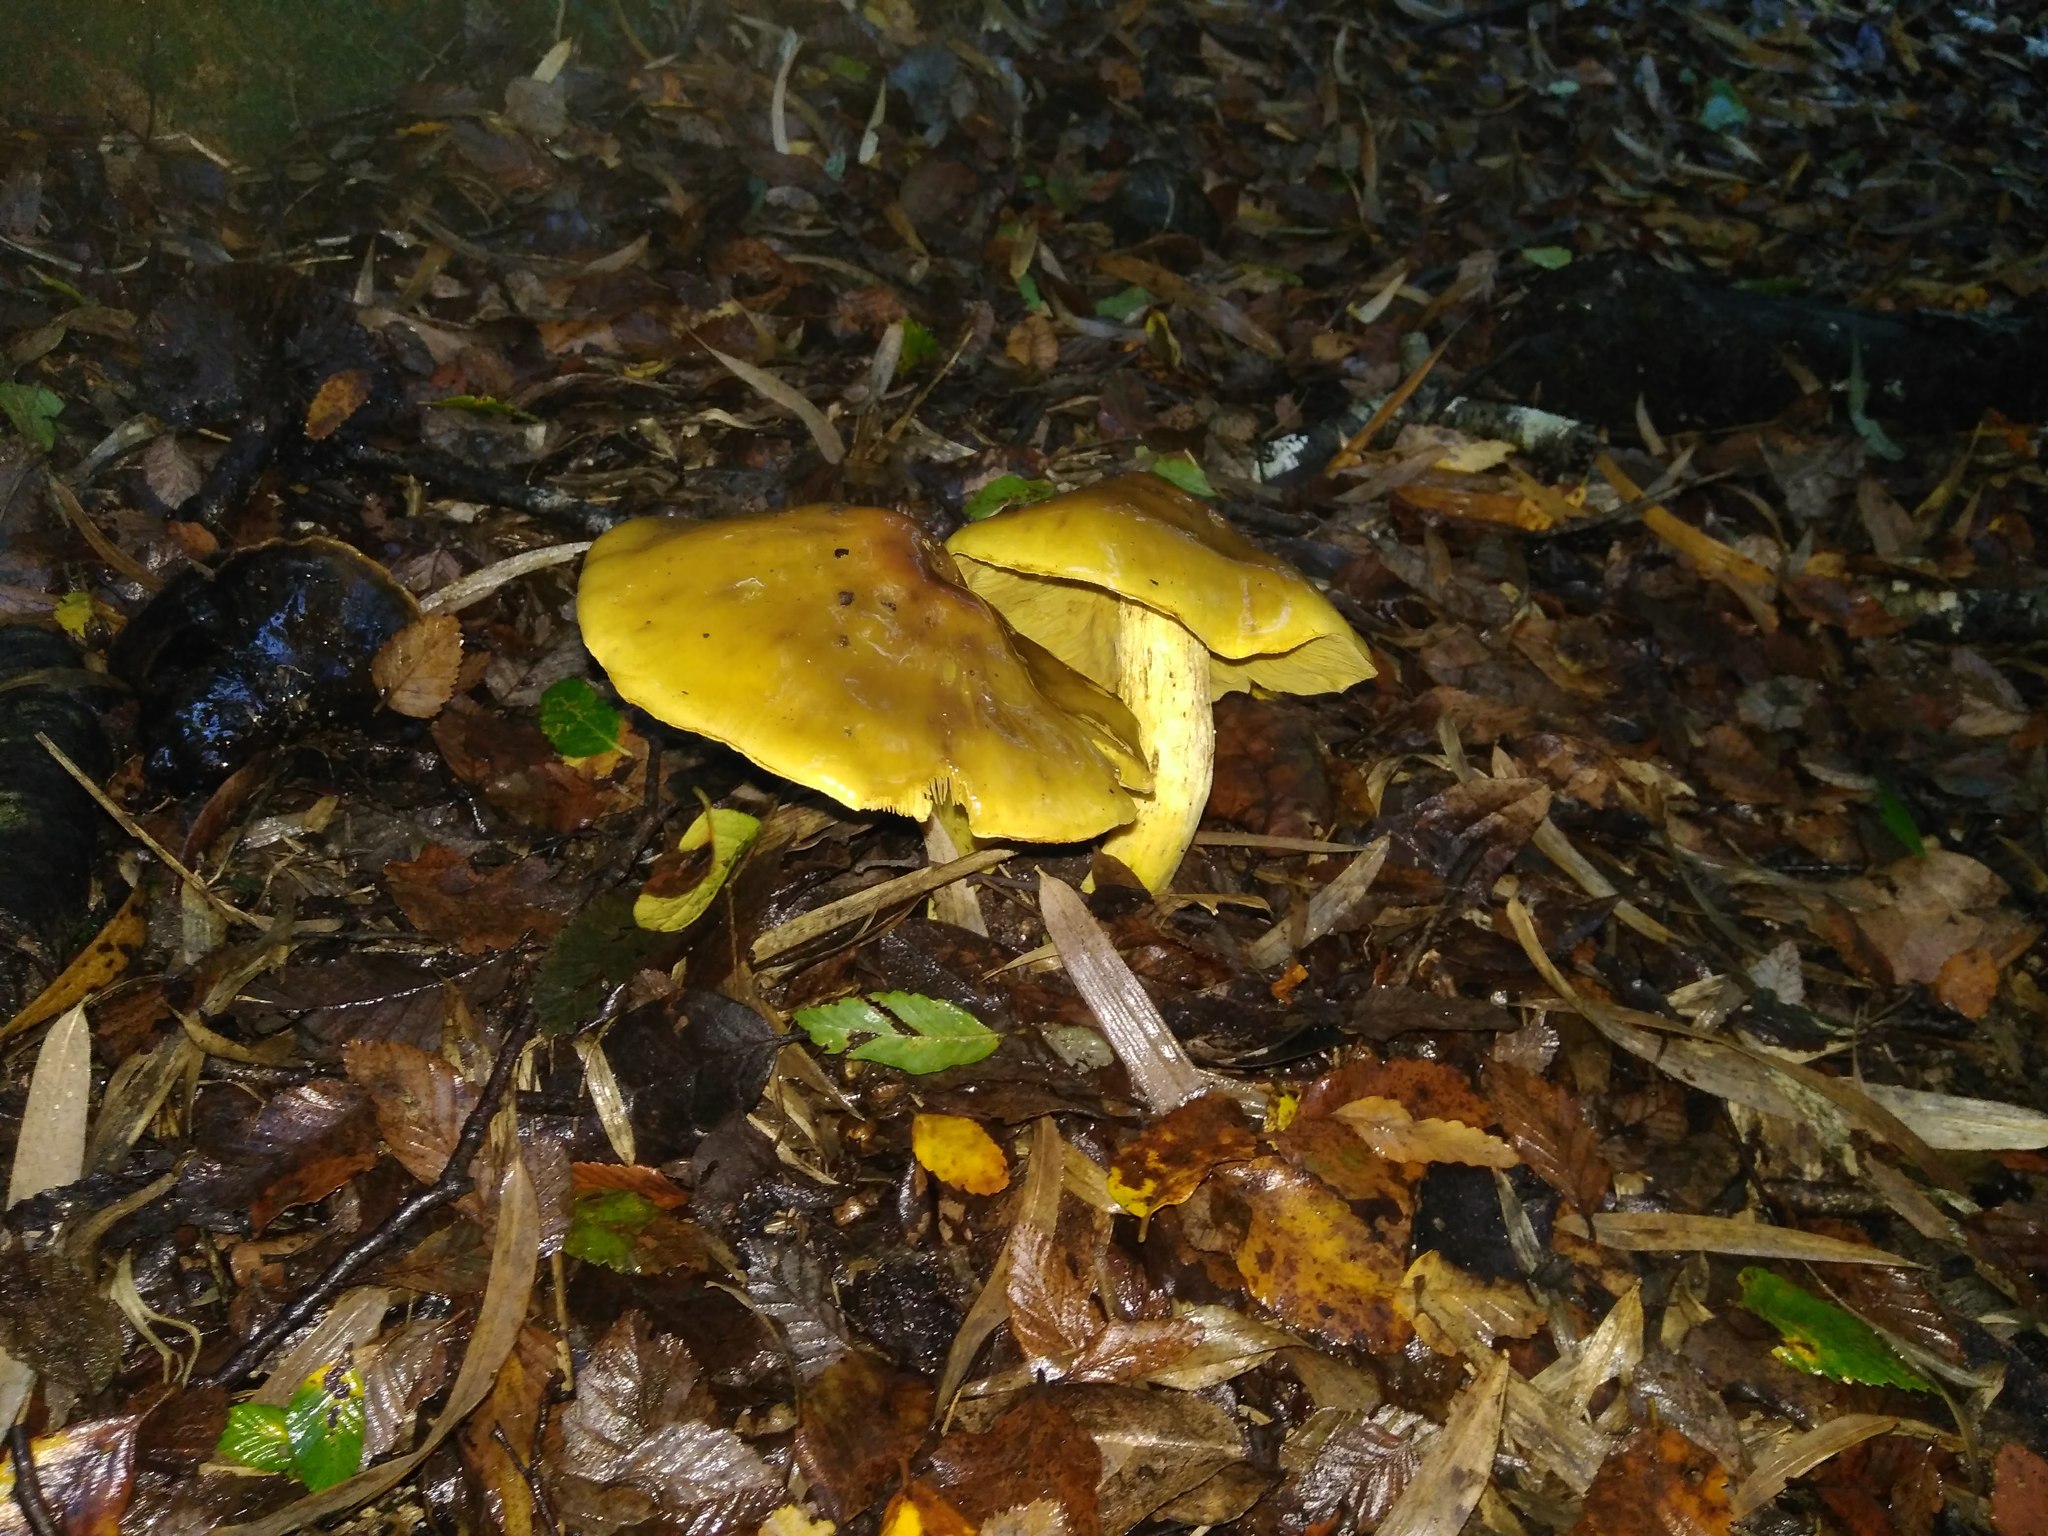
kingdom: Fungi
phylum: Basidiomycota
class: Agaricomycetes
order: Agaricales
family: Cortinariaceae
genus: Cortinarius
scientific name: Cortinarius nahuelbutensis
